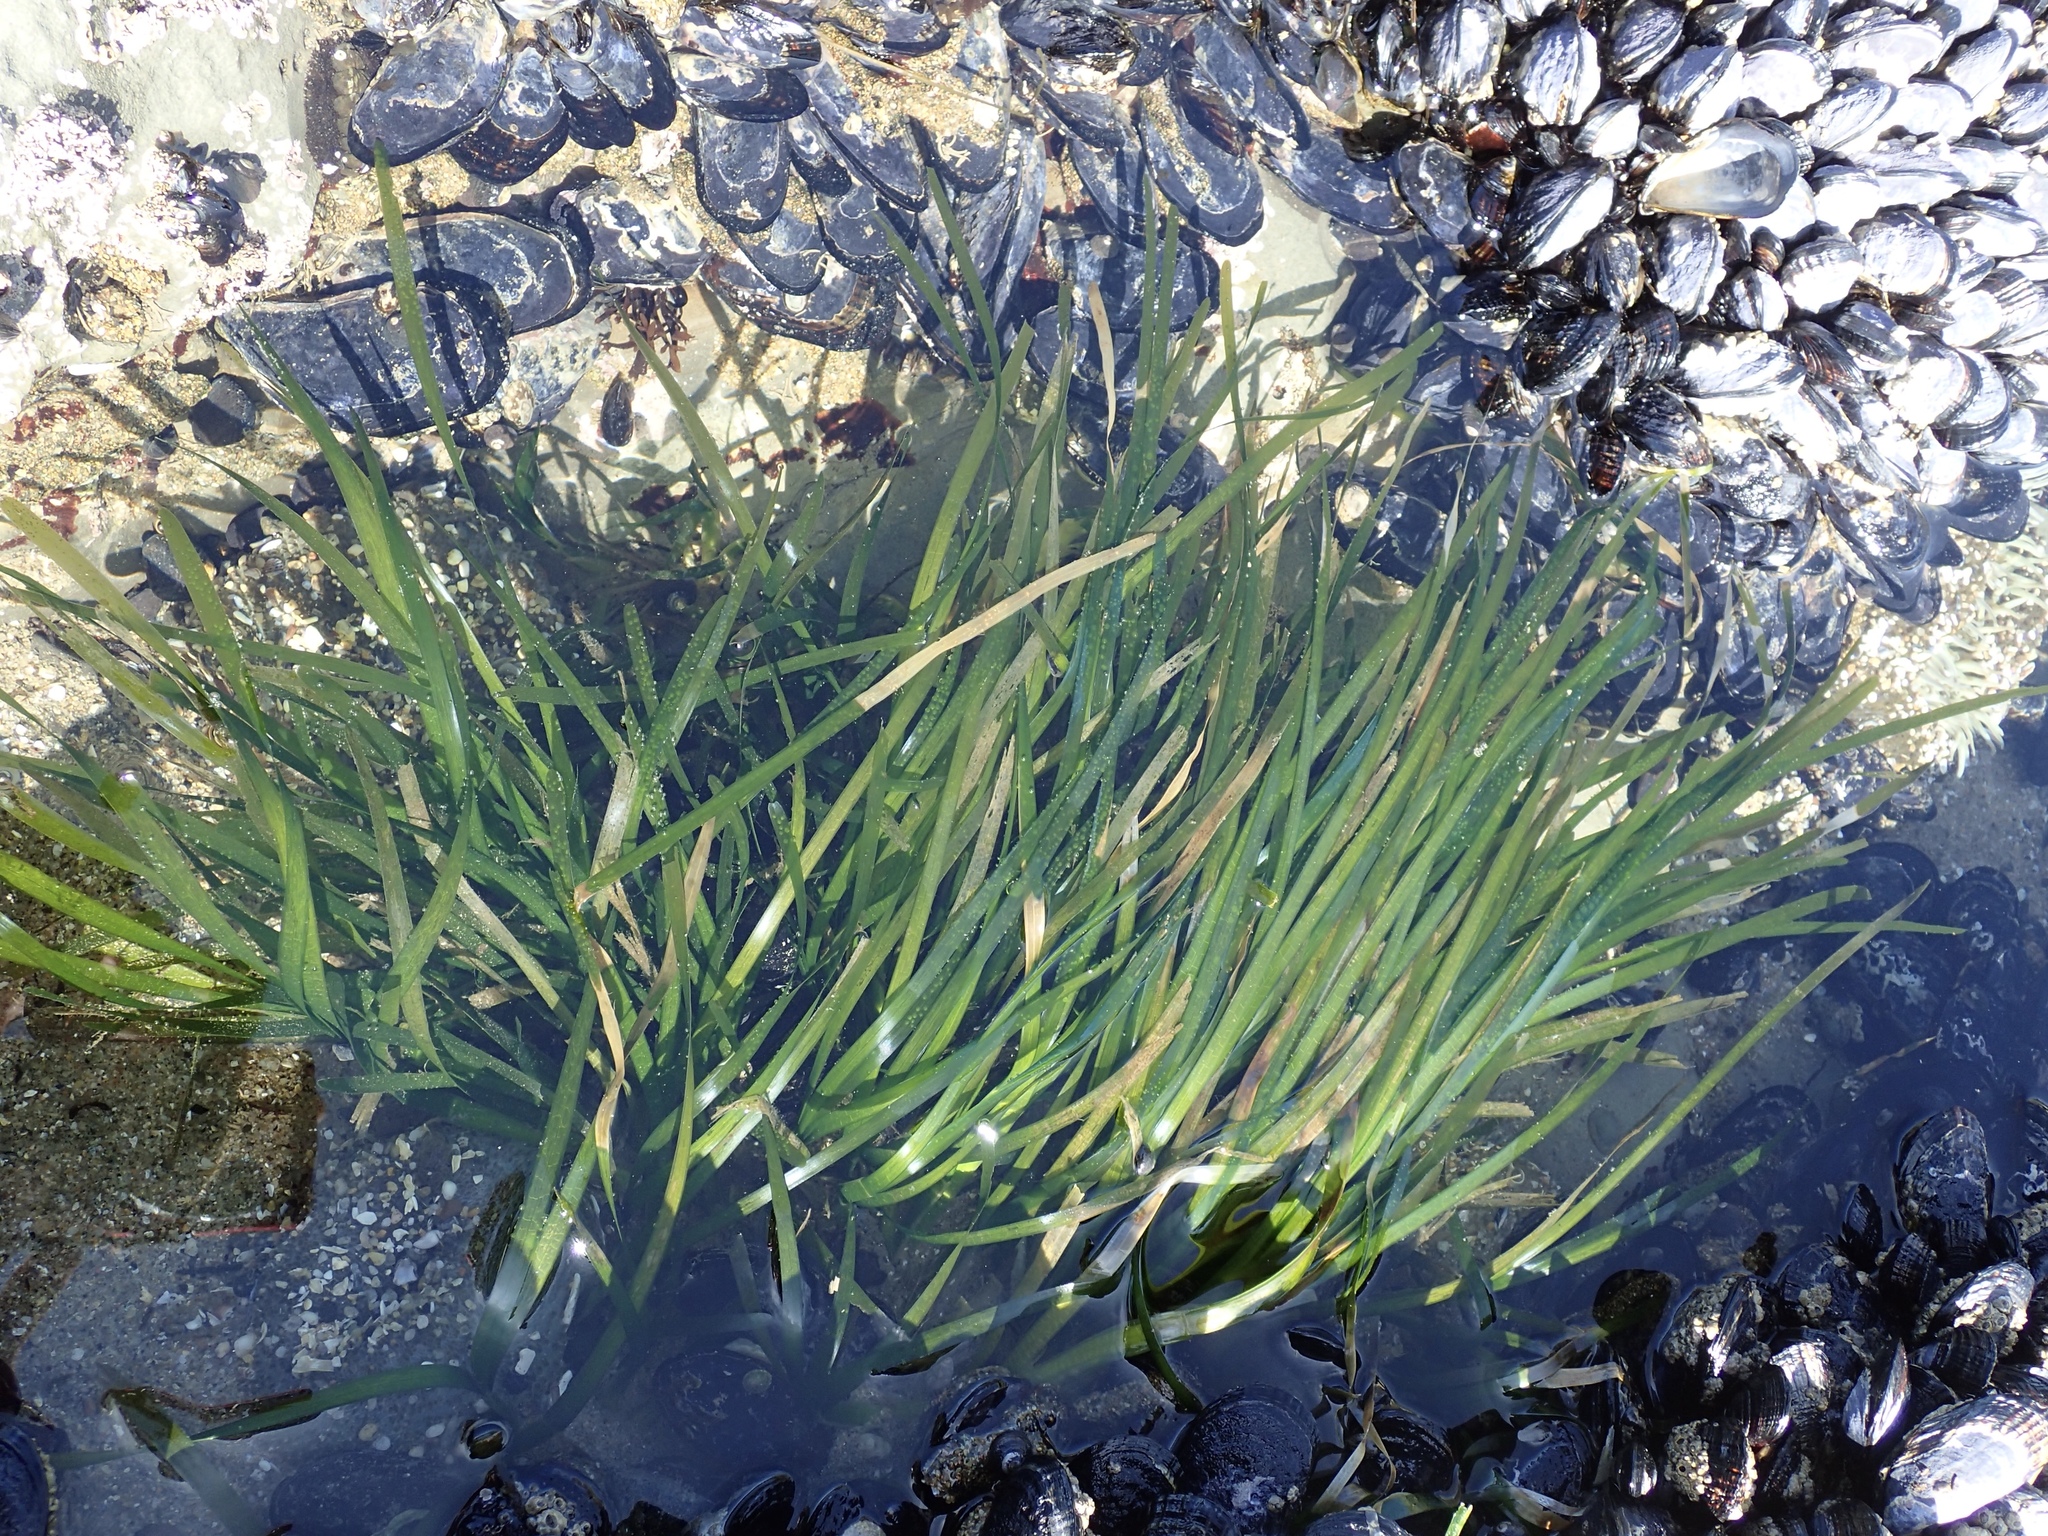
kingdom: Plantae
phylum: Tracheophyta
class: Liliopsida
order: Alismatales
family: Zosteraceae
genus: Phyllospadix
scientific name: Phyllospadix scouleri
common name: Species code: ps
